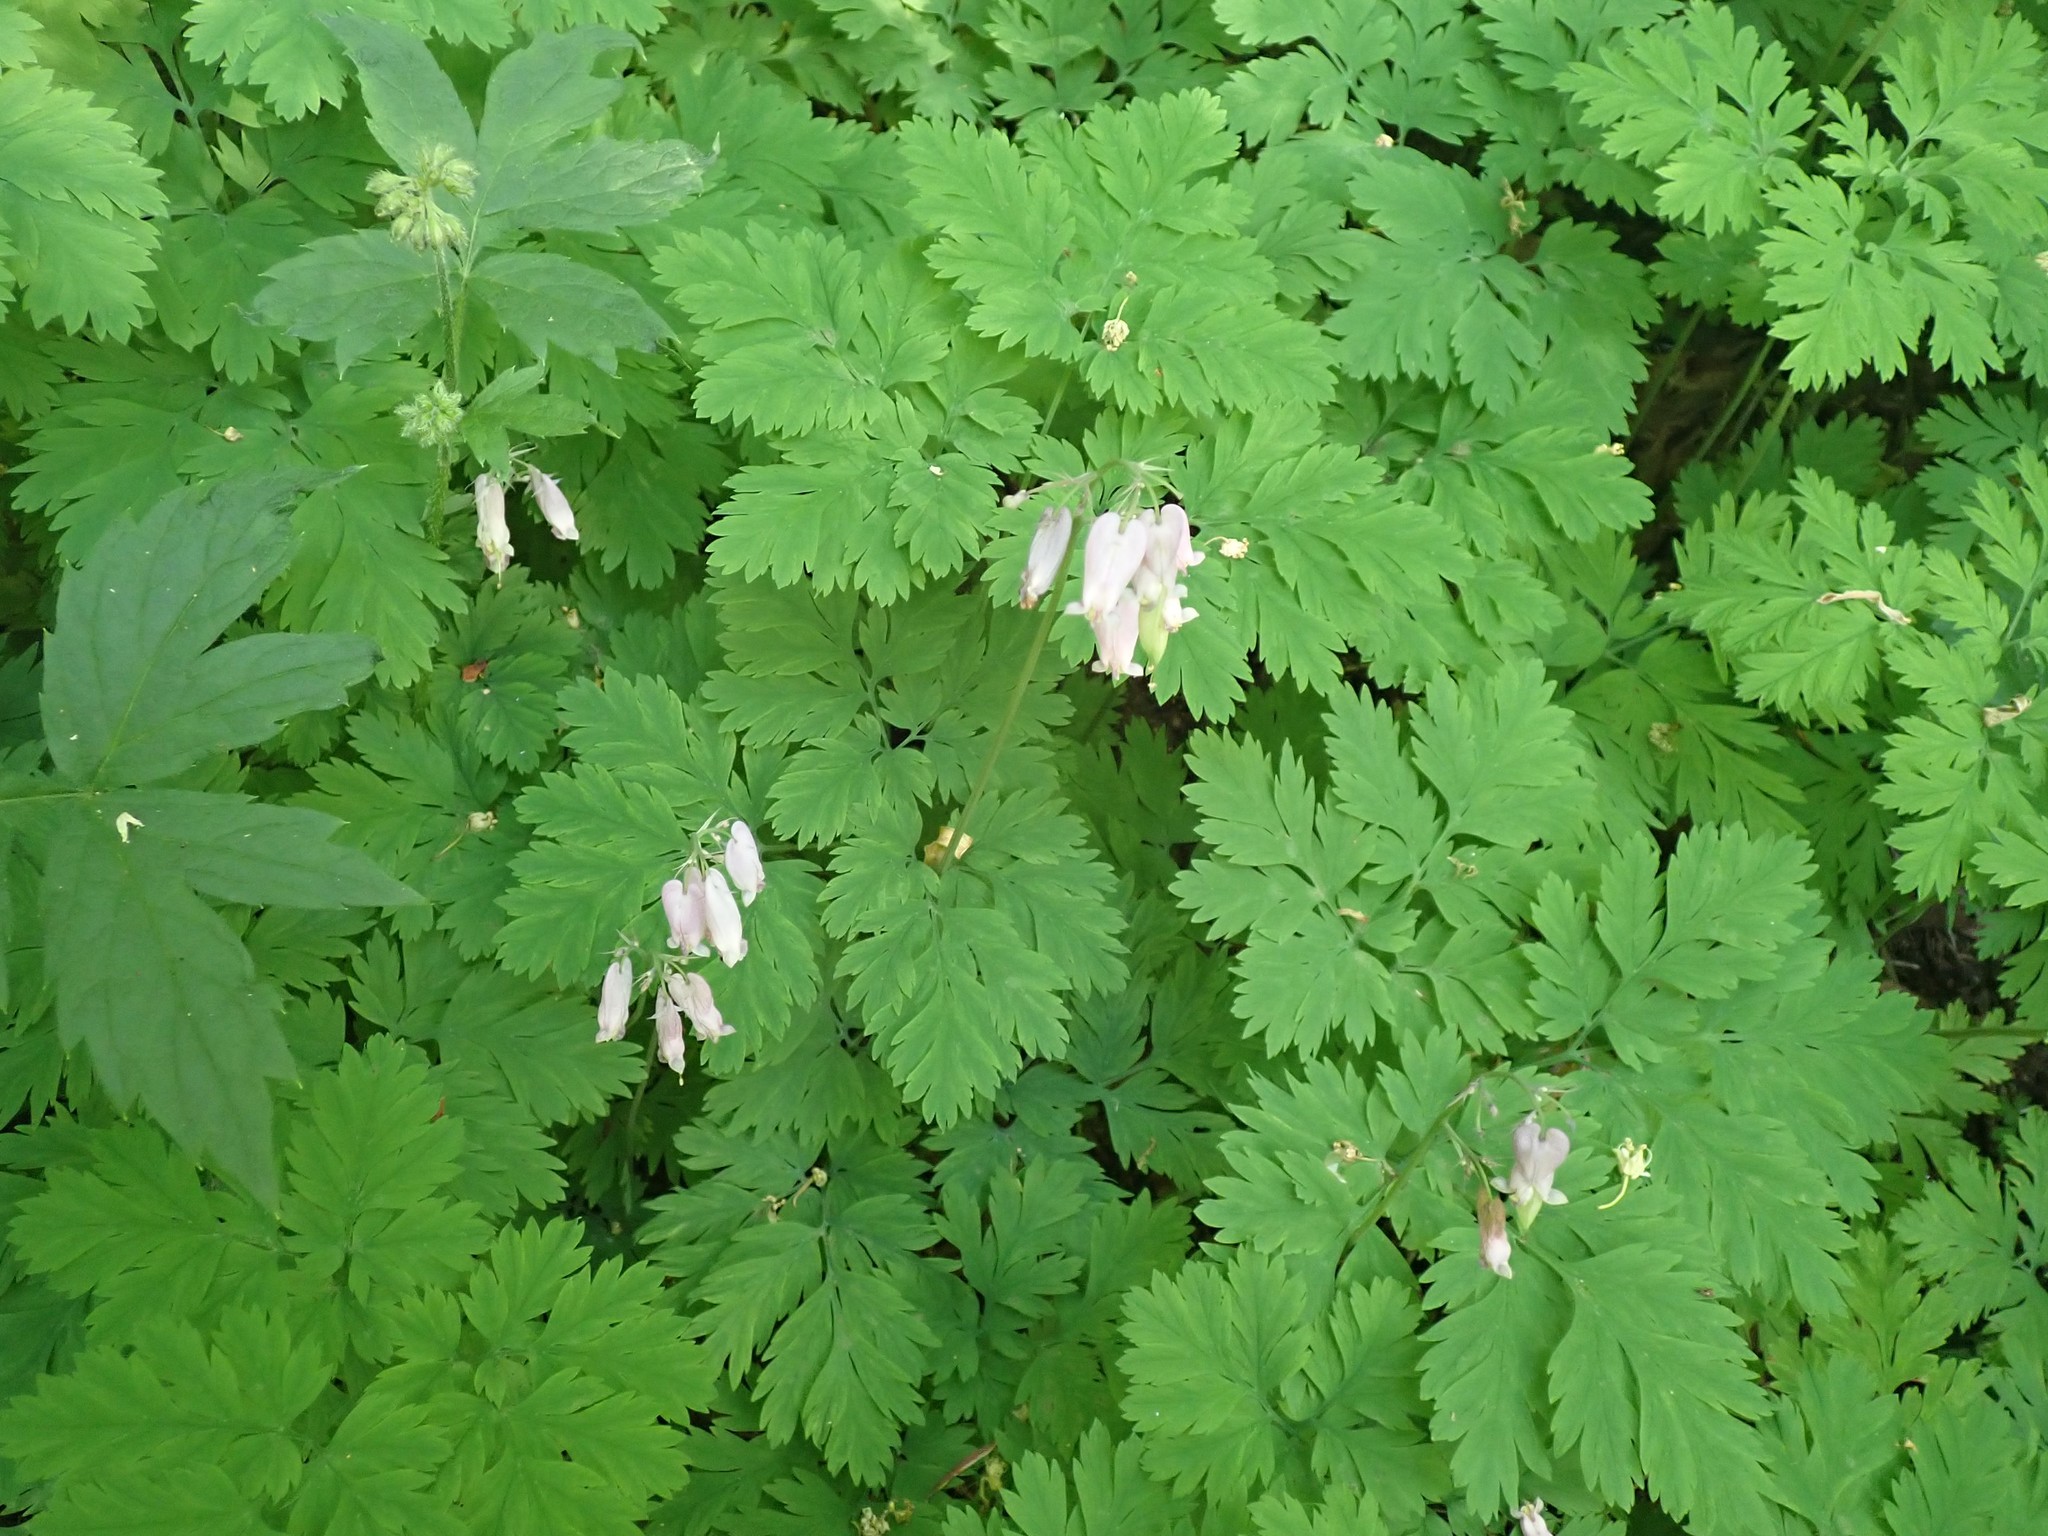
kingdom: Plantae
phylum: Tracheophyta
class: Magnoliopsida
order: Ranunculales
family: Papaveraceae
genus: Dicentra
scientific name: Dicentra formosa
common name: Bleeding-heart
